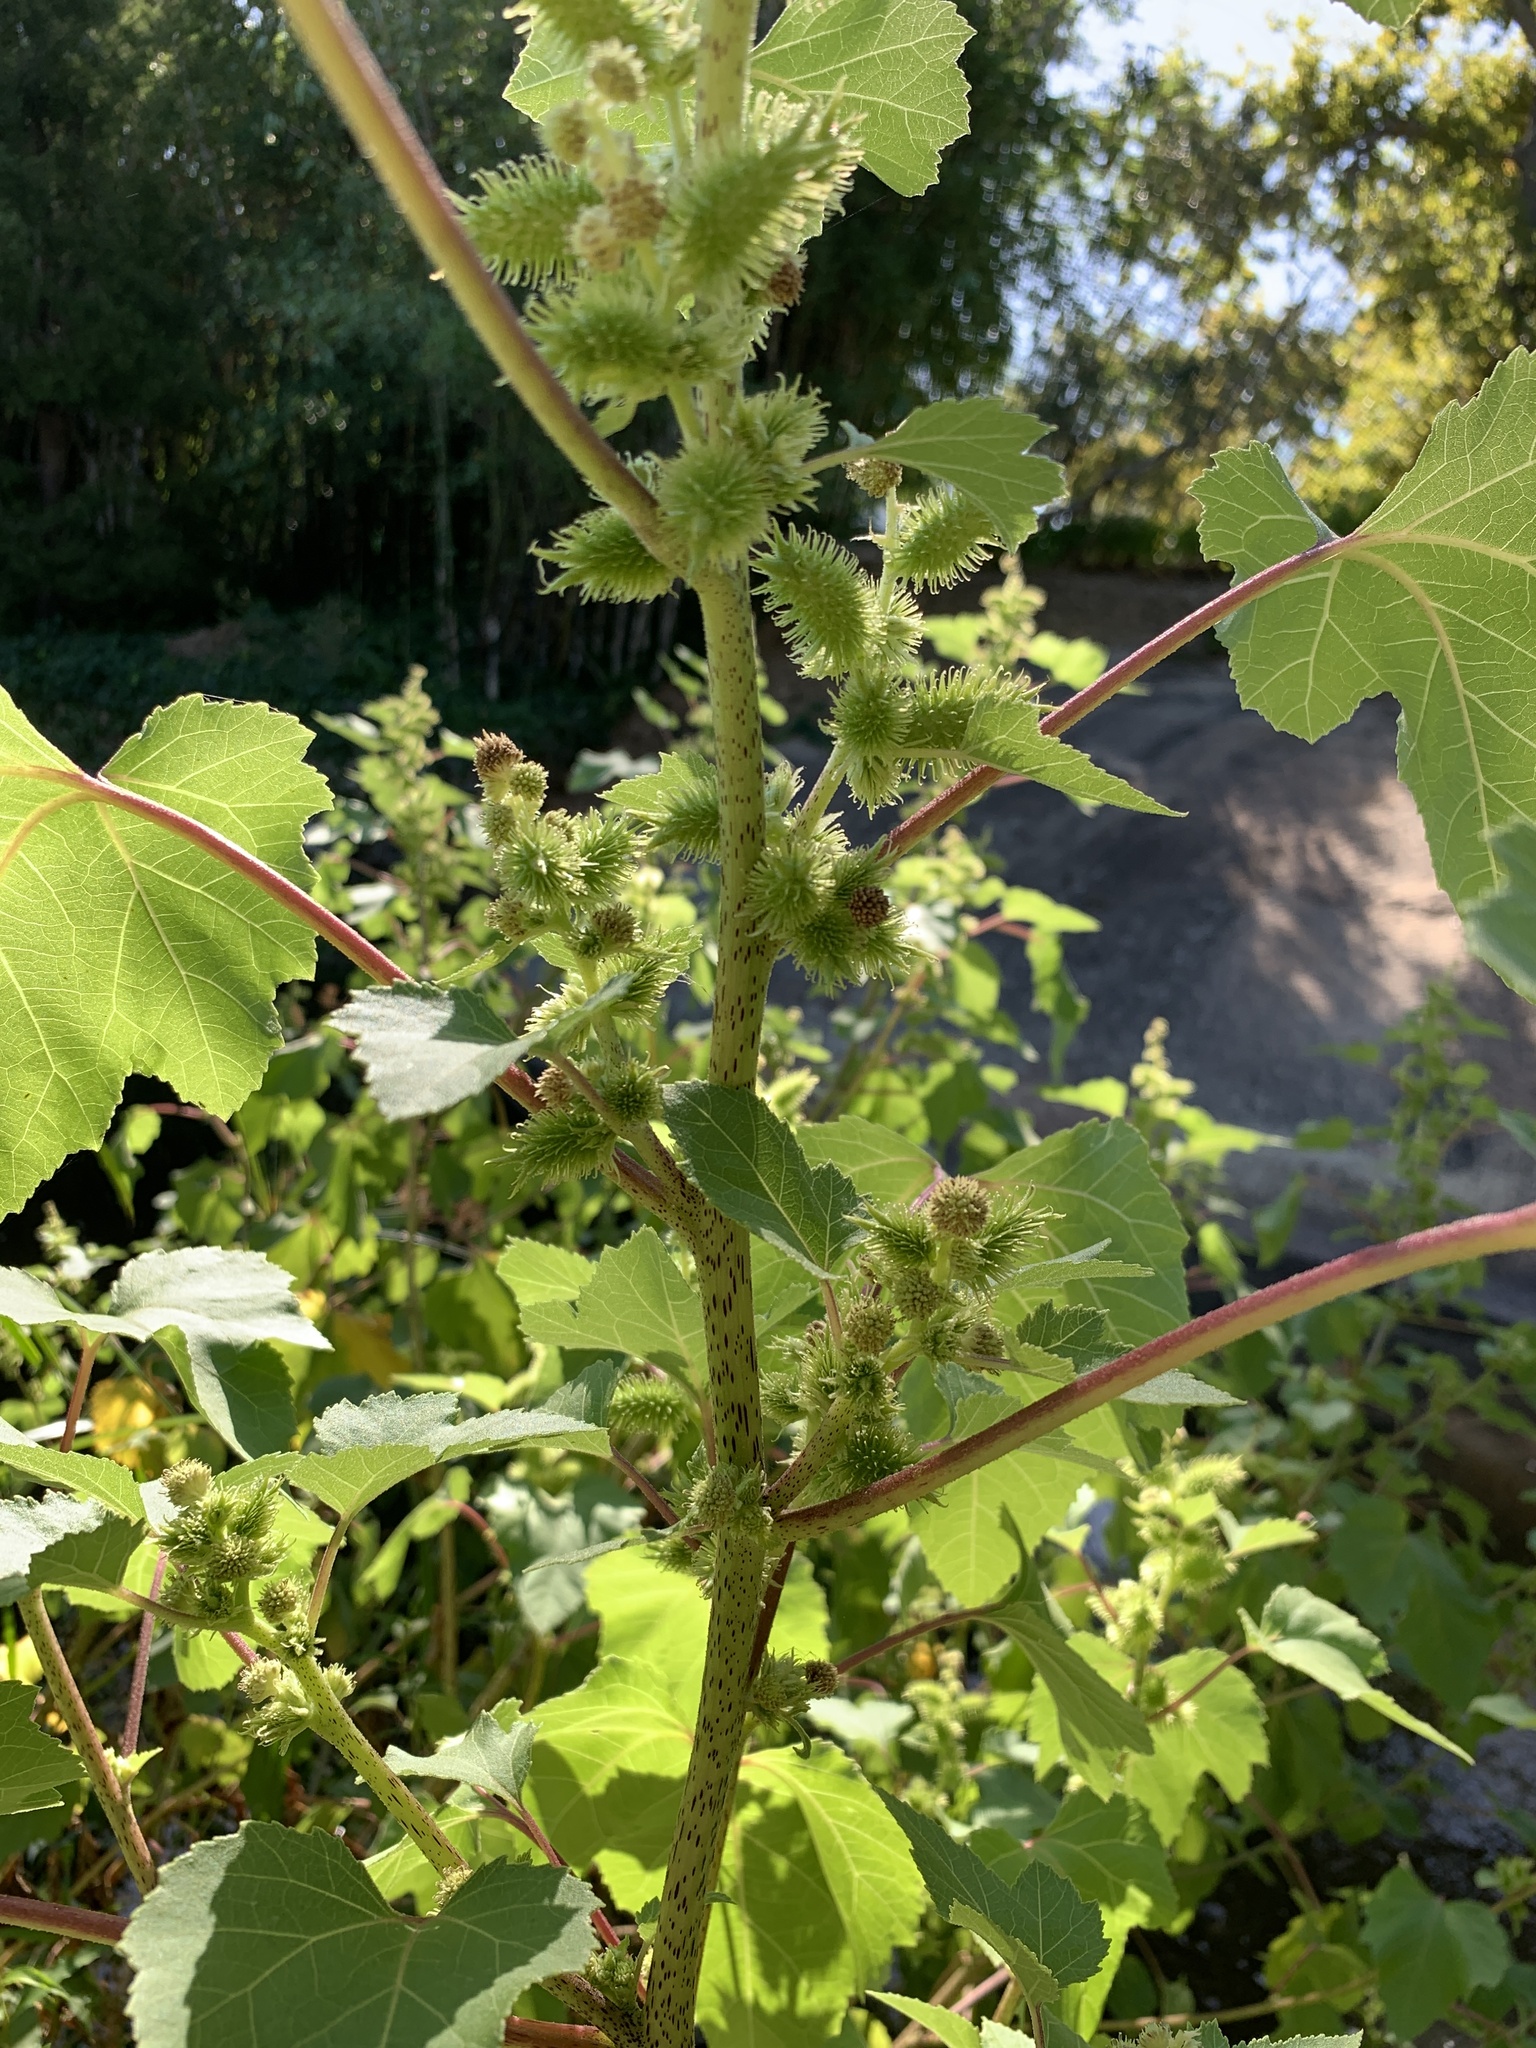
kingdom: Plantae
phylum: Tracheophyta
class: Magnoliopsida
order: Asterales
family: Asteraceae
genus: Xanthium
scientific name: Xanthium strumarium
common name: Rough cocklebur
